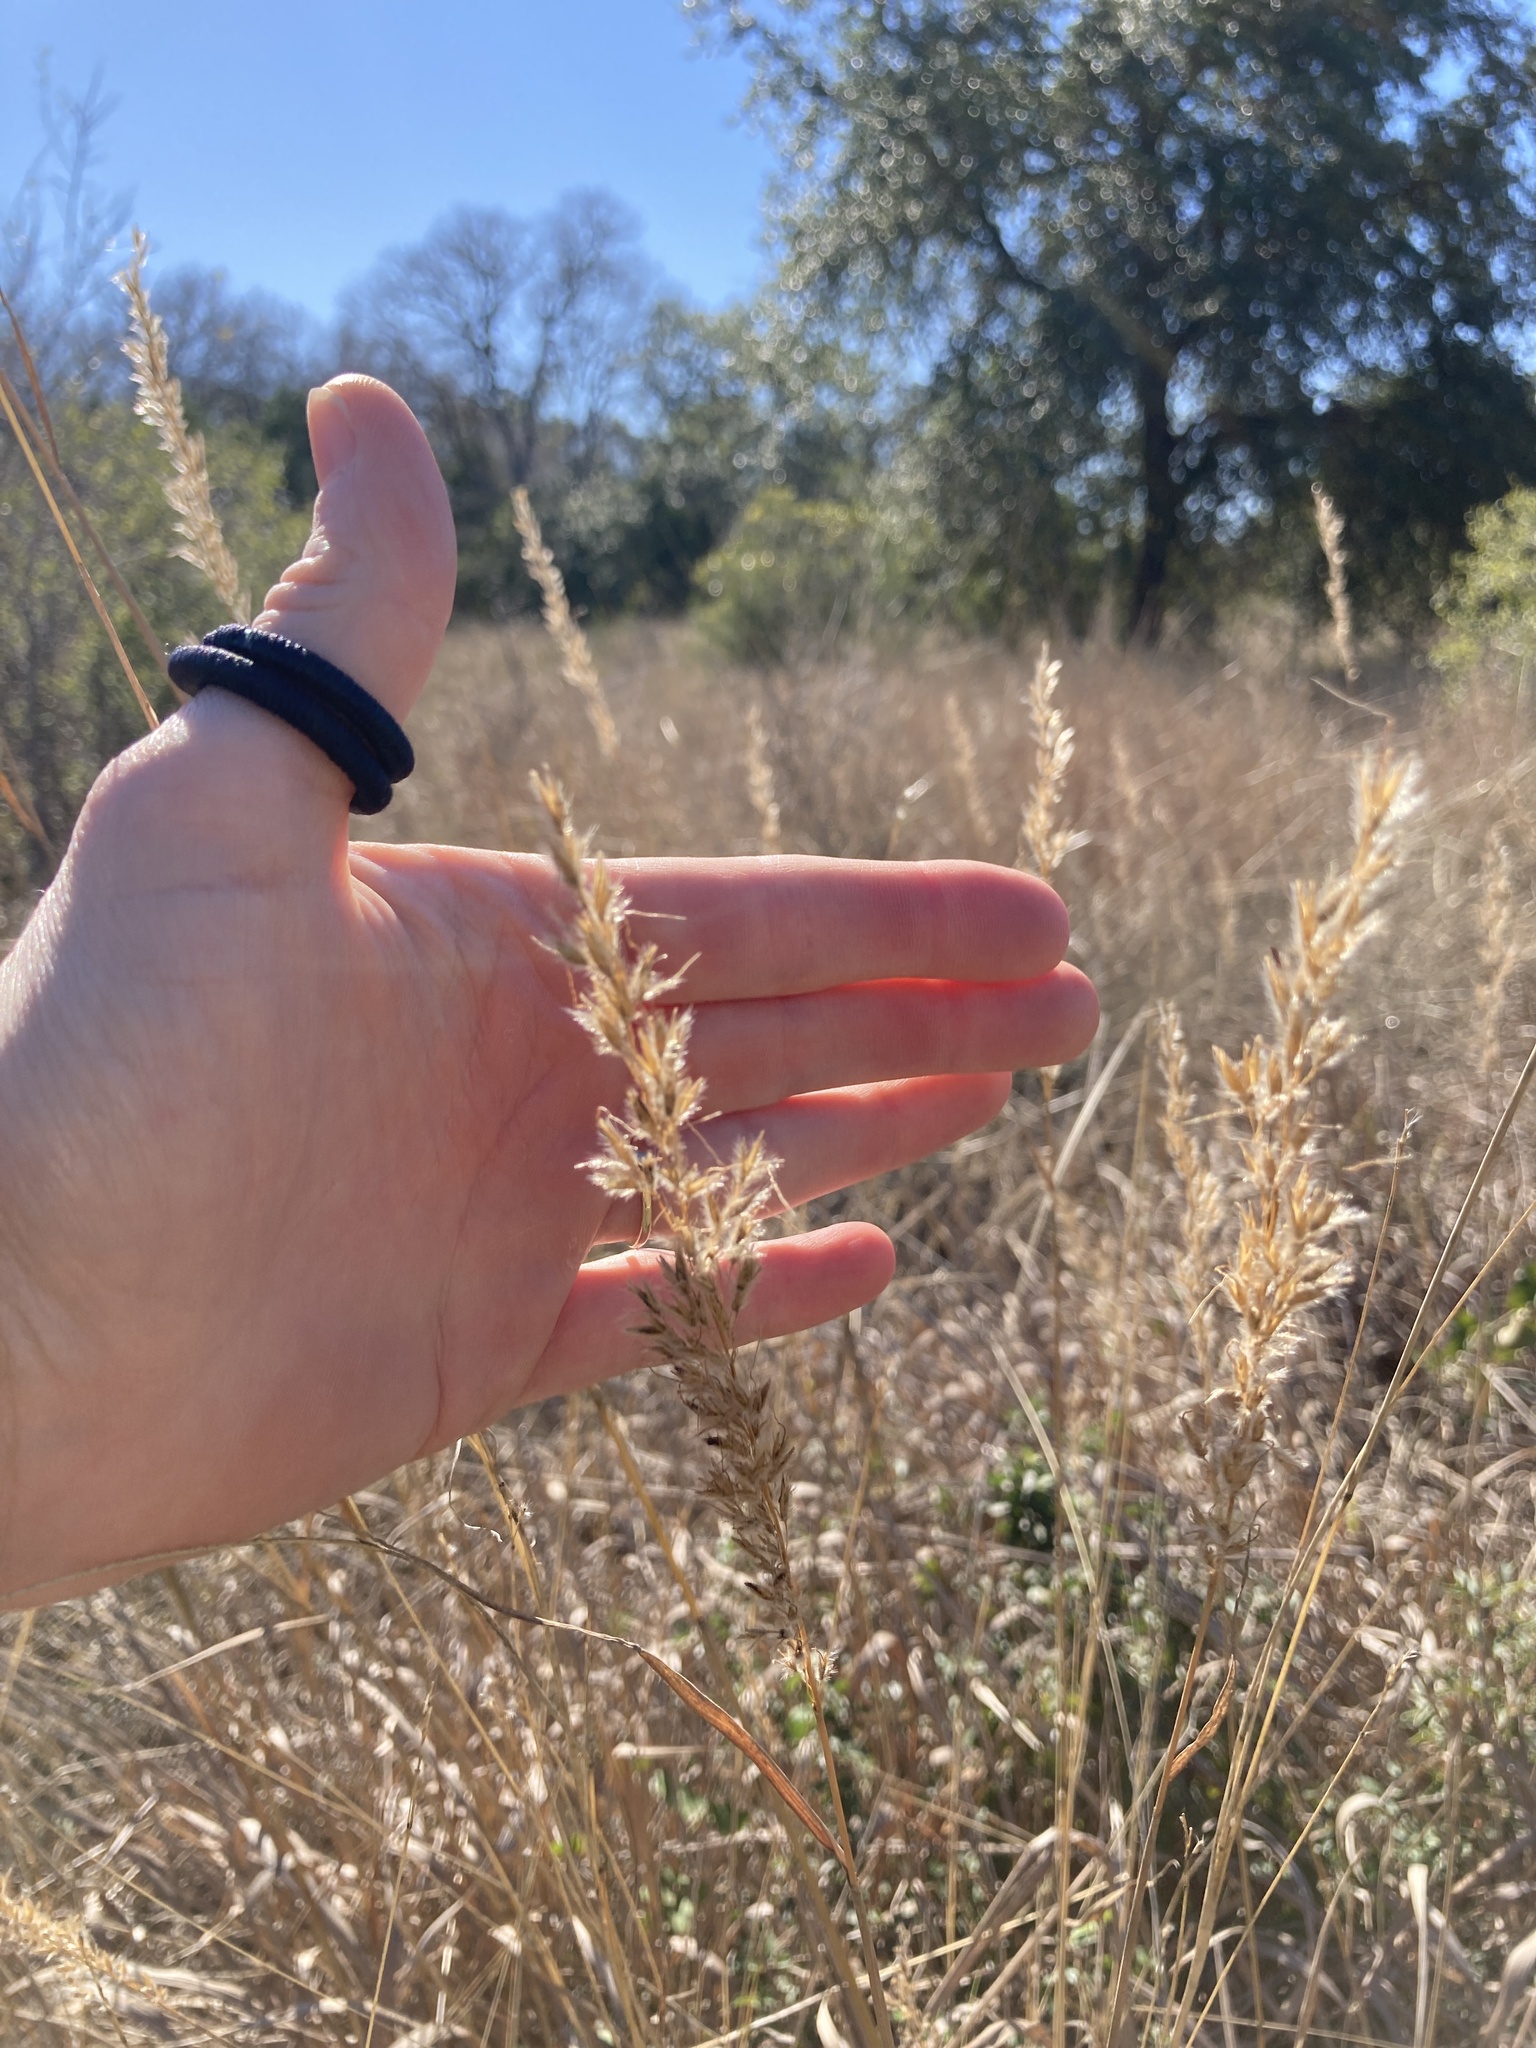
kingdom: Plantae
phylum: Tracheophyta
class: Liliopsida
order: Poales
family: Poaceae
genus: Sorghastrum
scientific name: Sorghastrum nutans
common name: Indian grass
